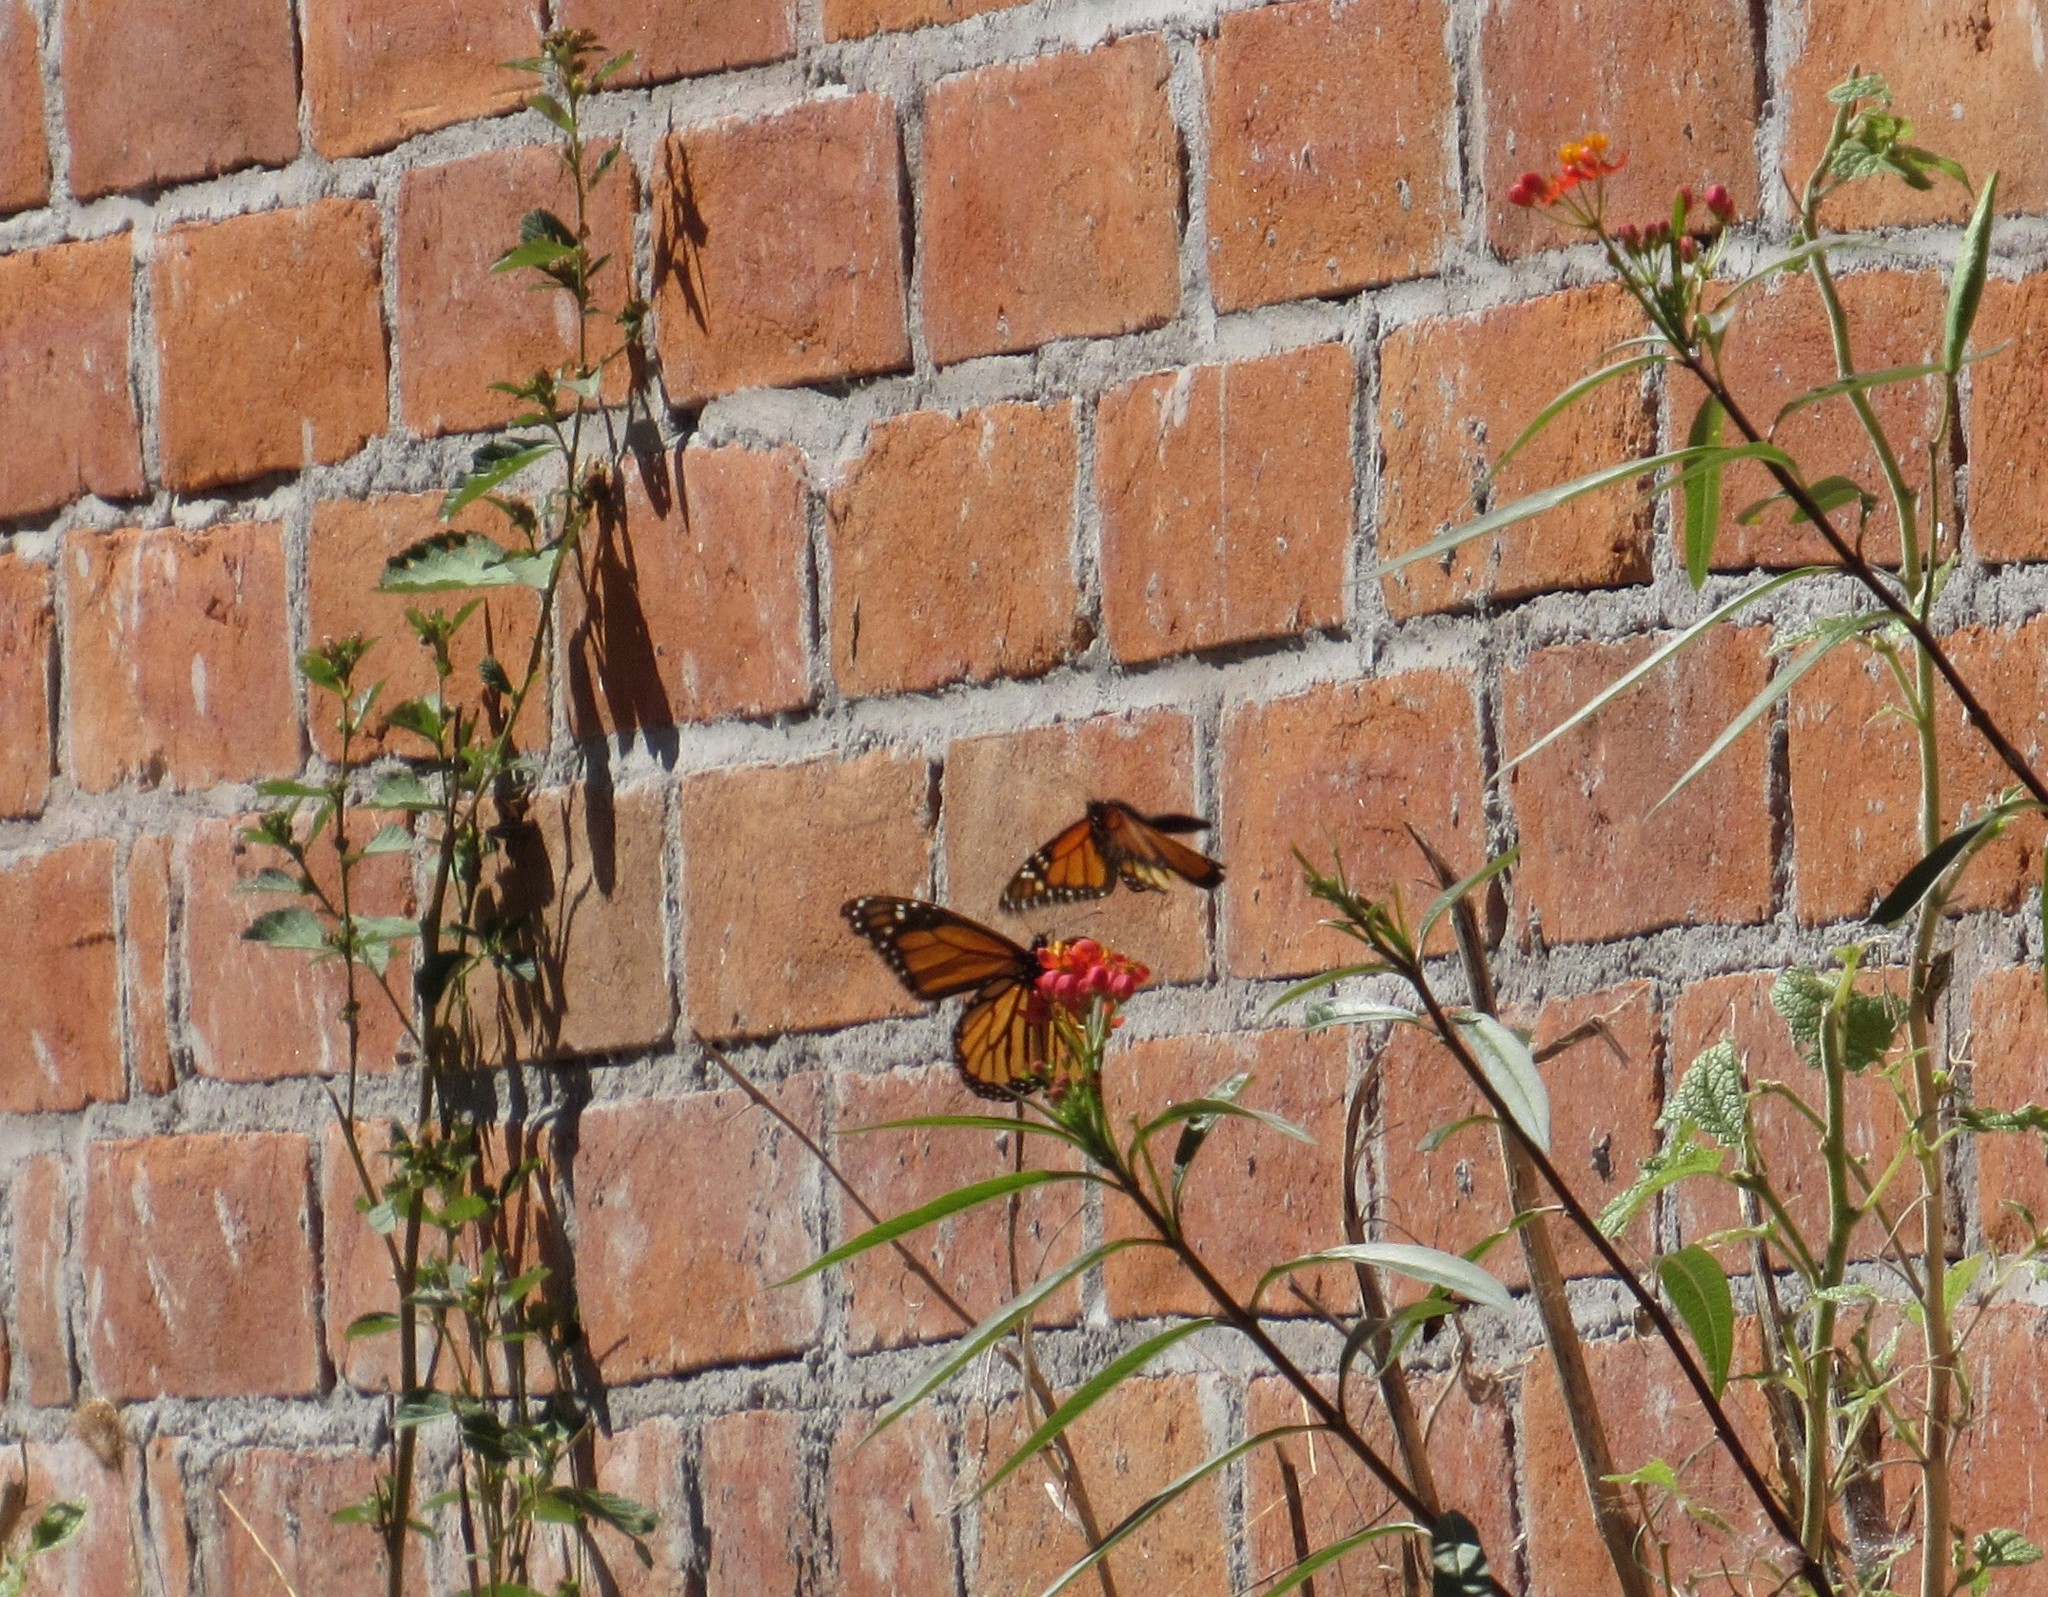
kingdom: Animalia
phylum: Arthropoda
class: Insecta
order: Lepidoptera
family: Nymphalidae
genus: Danaus
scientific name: Danaus plexippus
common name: Monarch
